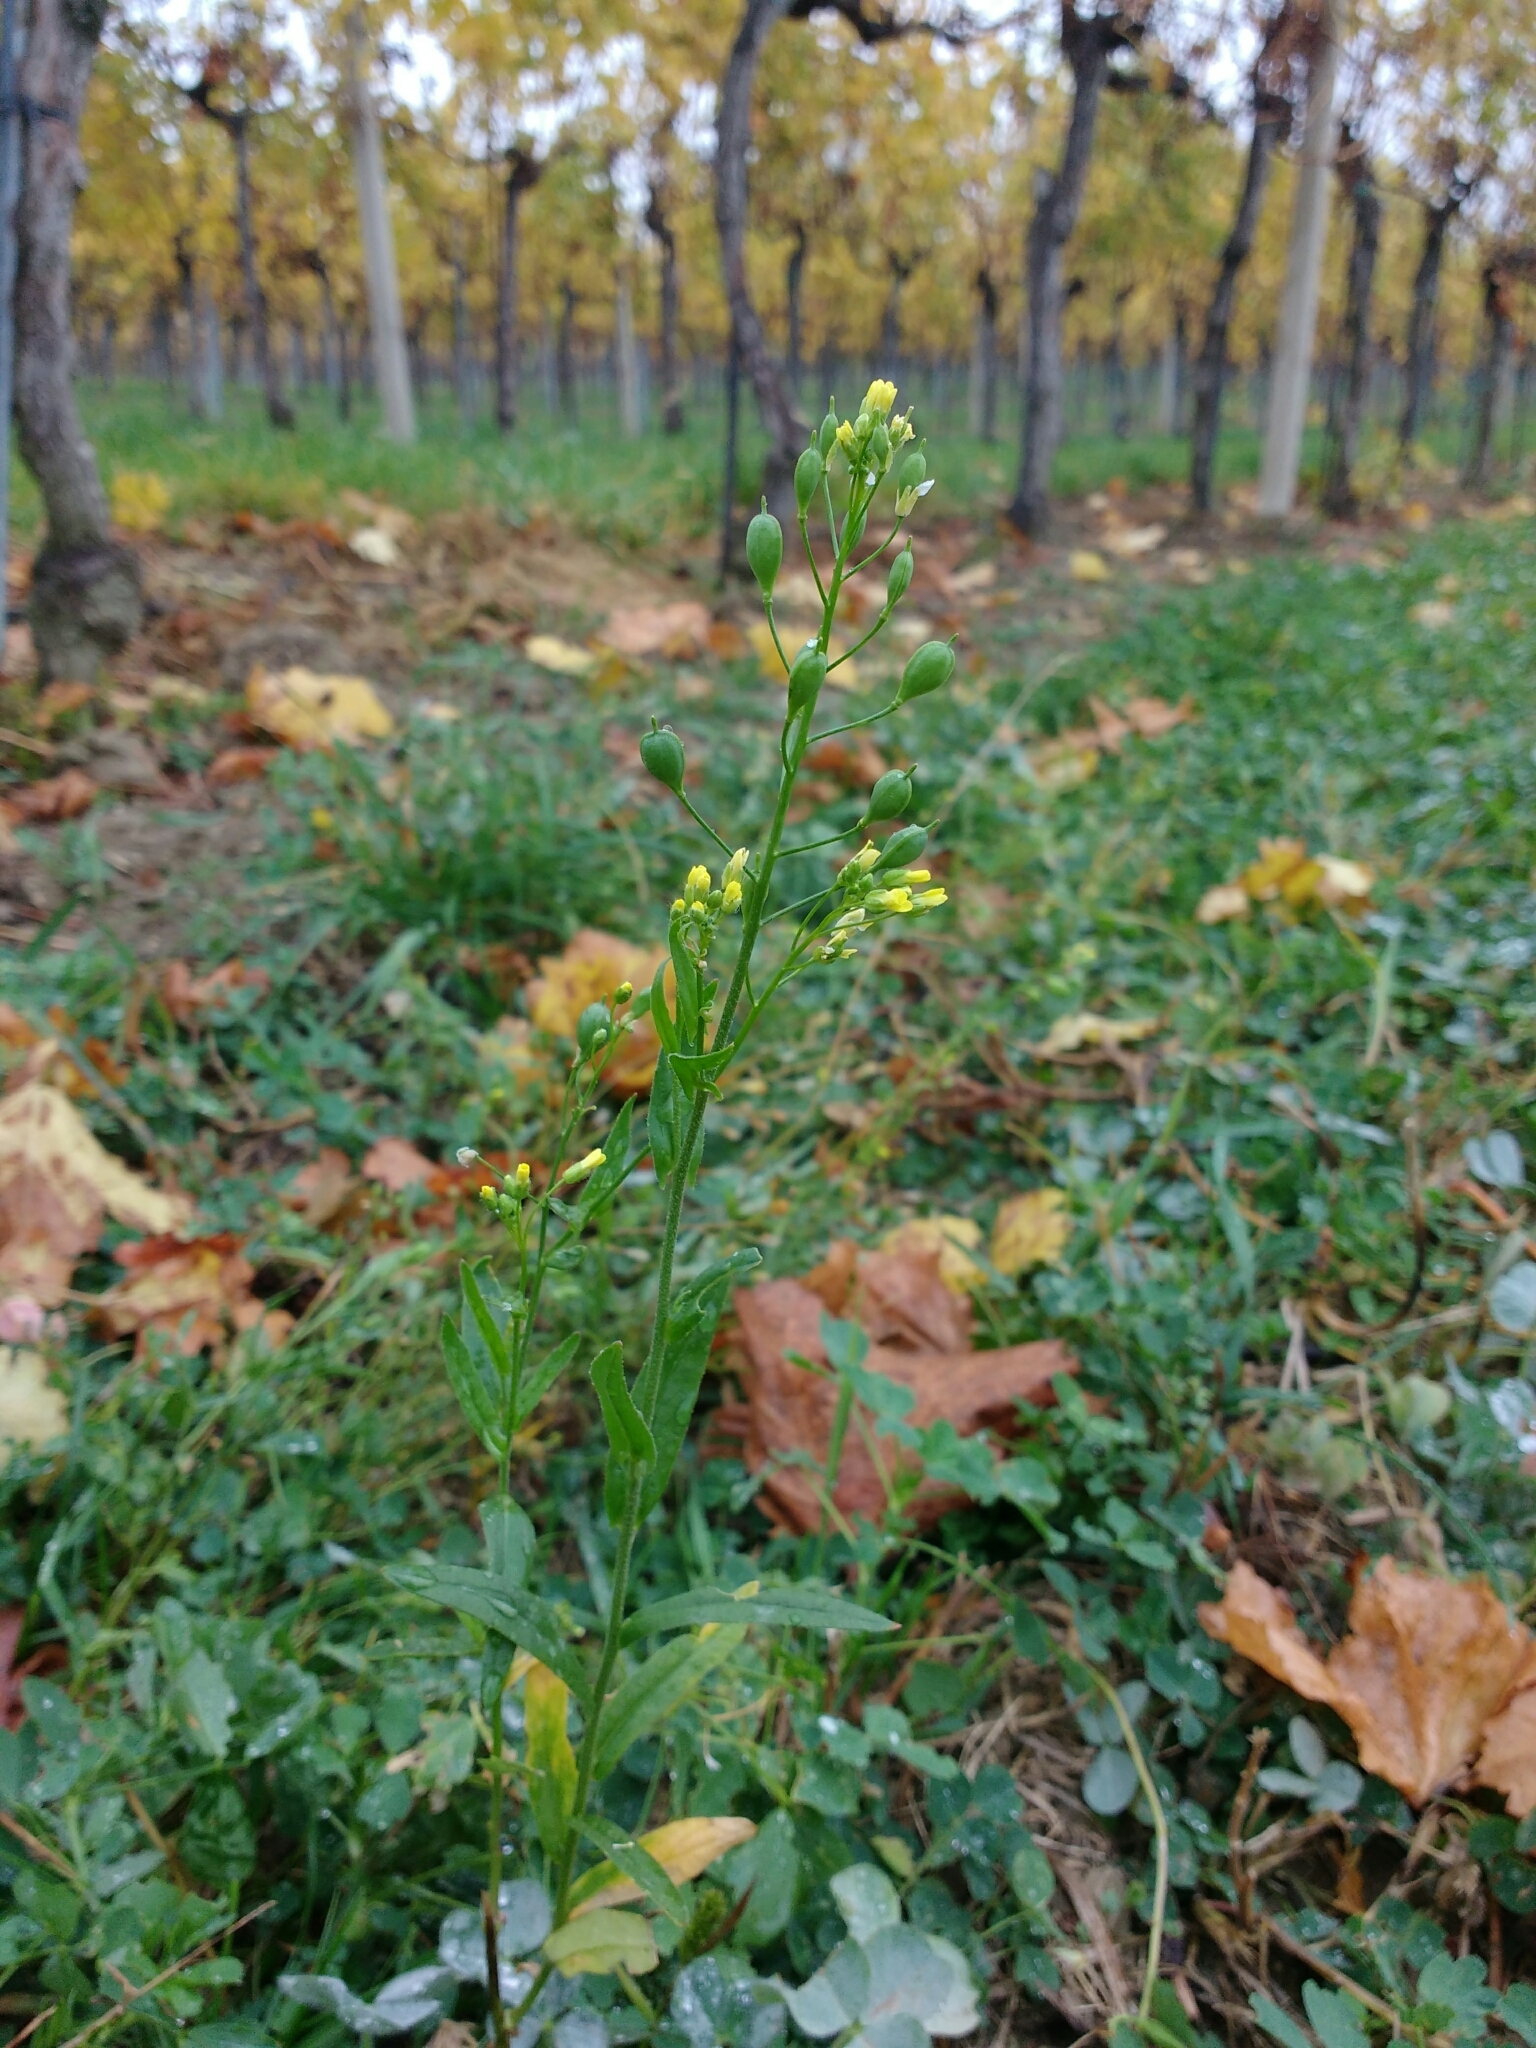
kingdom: Plantae
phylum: Tracheophyta
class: Magnoliopsida
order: Brassicales
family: Brassicaceae
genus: Camelina
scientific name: Camelina sativa
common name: Gold-of-pleasure
